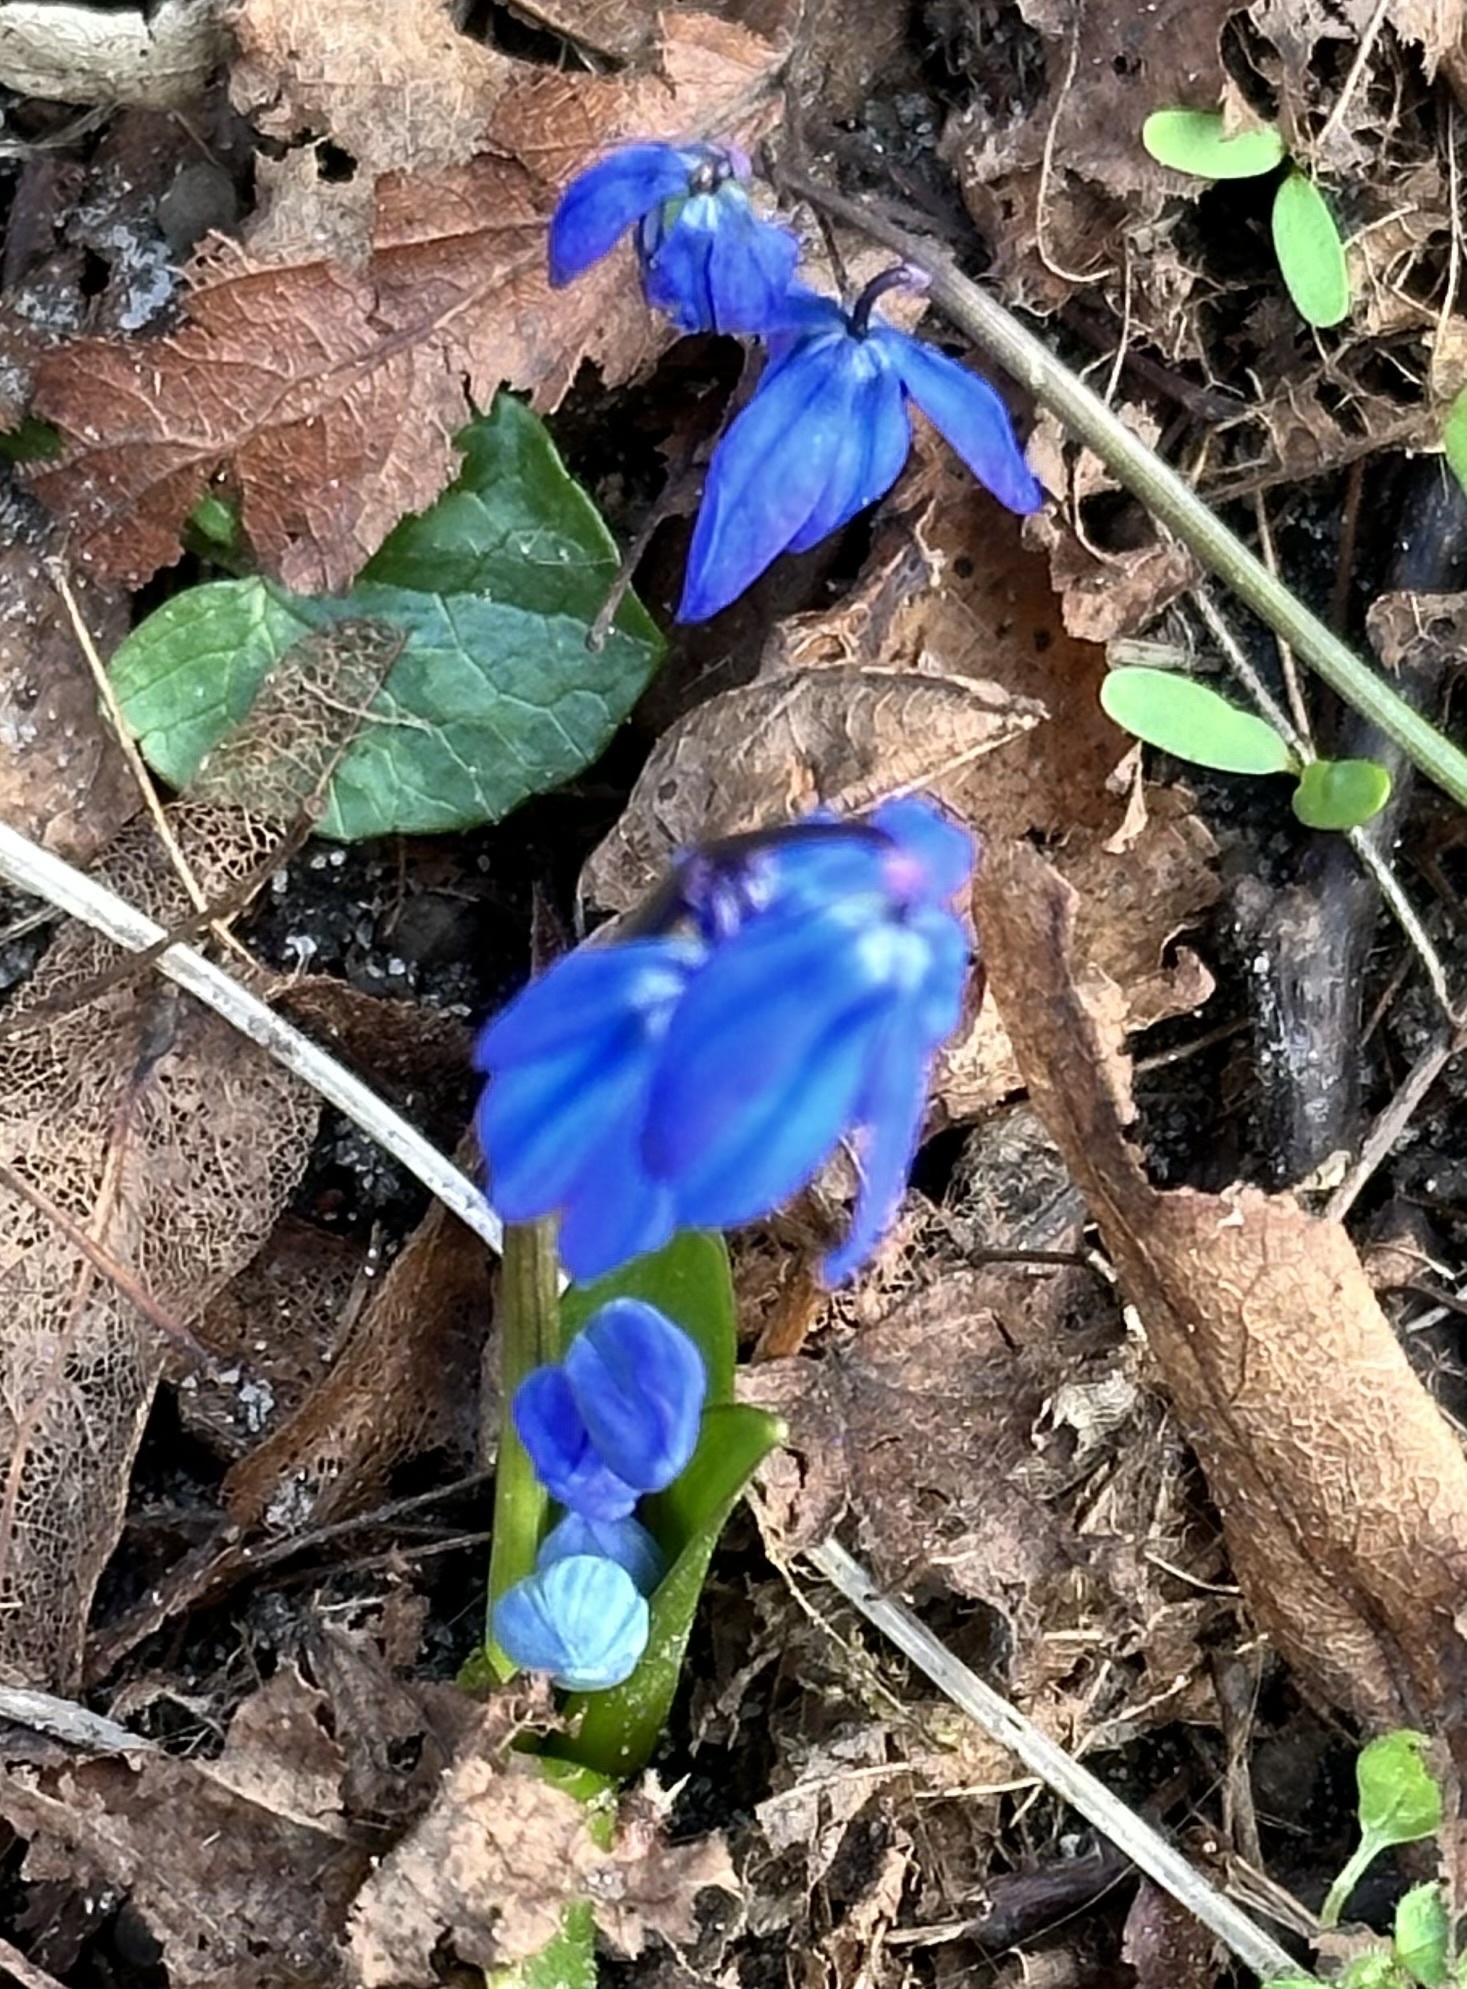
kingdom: Plantae
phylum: Tracheophyta
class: Liliopsida
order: Asparagales
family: Asparagaceae
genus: Scilla
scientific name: Scilla siberica
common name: Siberian squill
